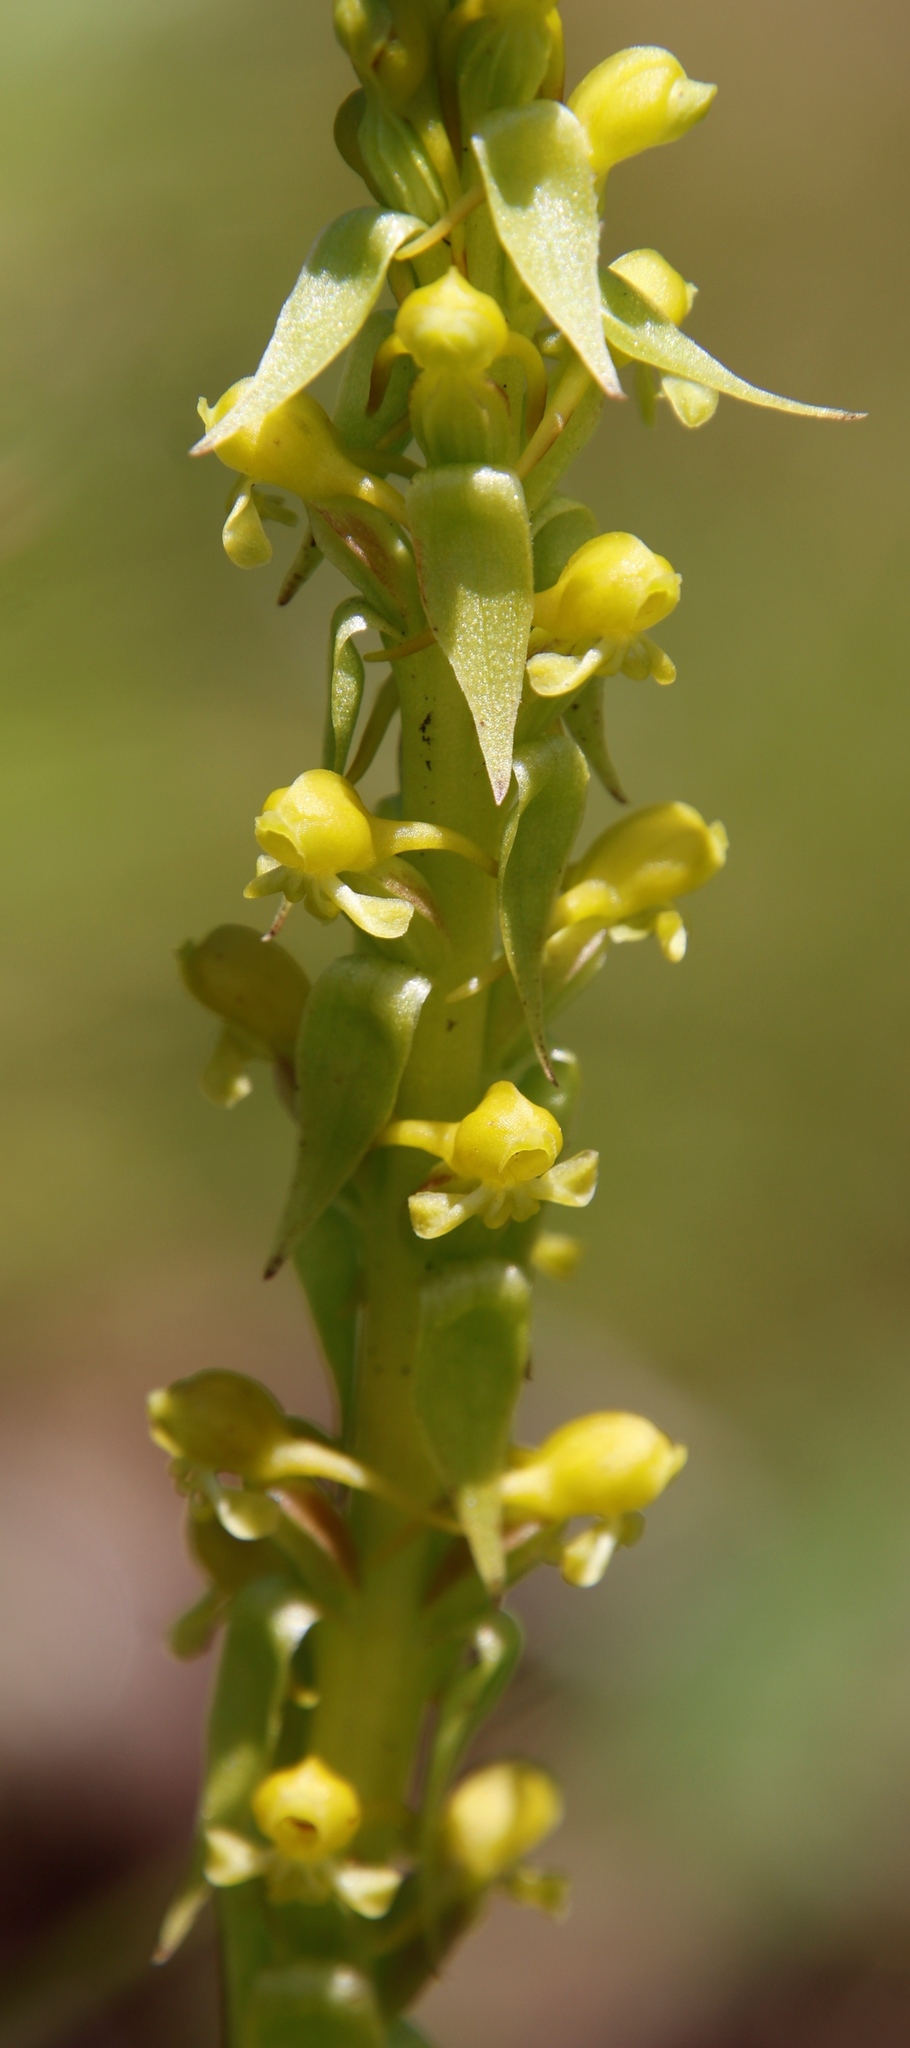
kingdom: Plantae
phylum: Tracheophyta
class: Liliopsida
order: Asparagales
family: Orchidaceae
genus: Satyrium
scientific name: Satyrium parviflorum
